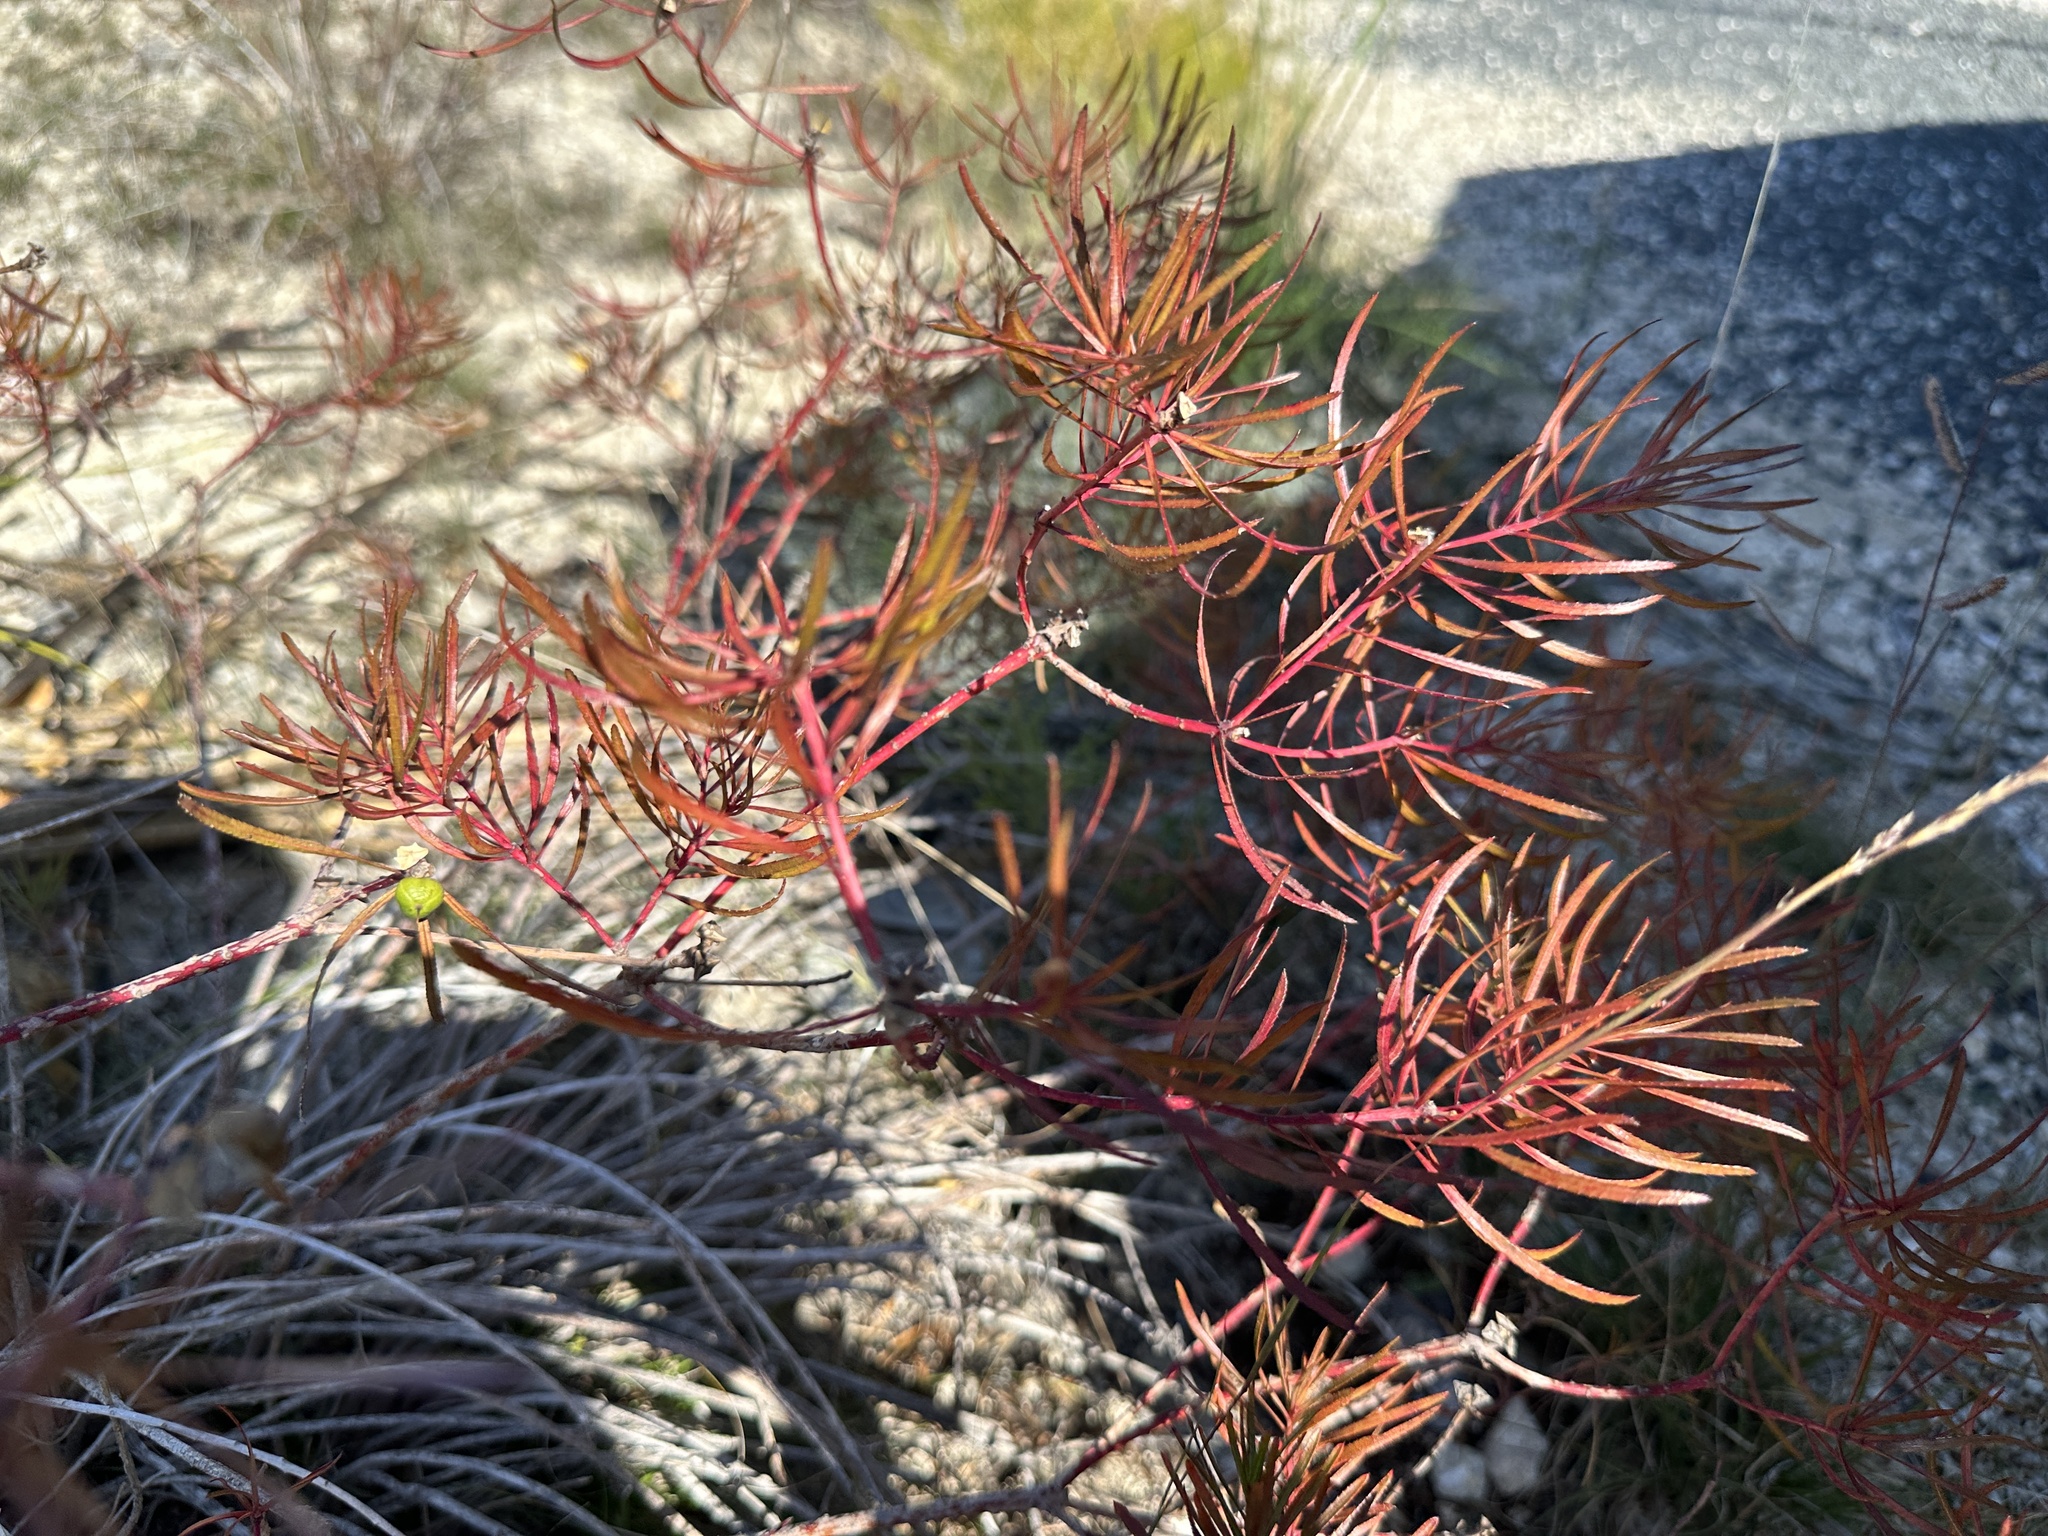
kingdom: Plantae
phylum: Tracheophyta
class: Magnoliopsida
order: Malpighiales
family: Euphorbiaceae
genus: Stillingia
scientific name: Stillingia texana
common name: Texas stillingia
